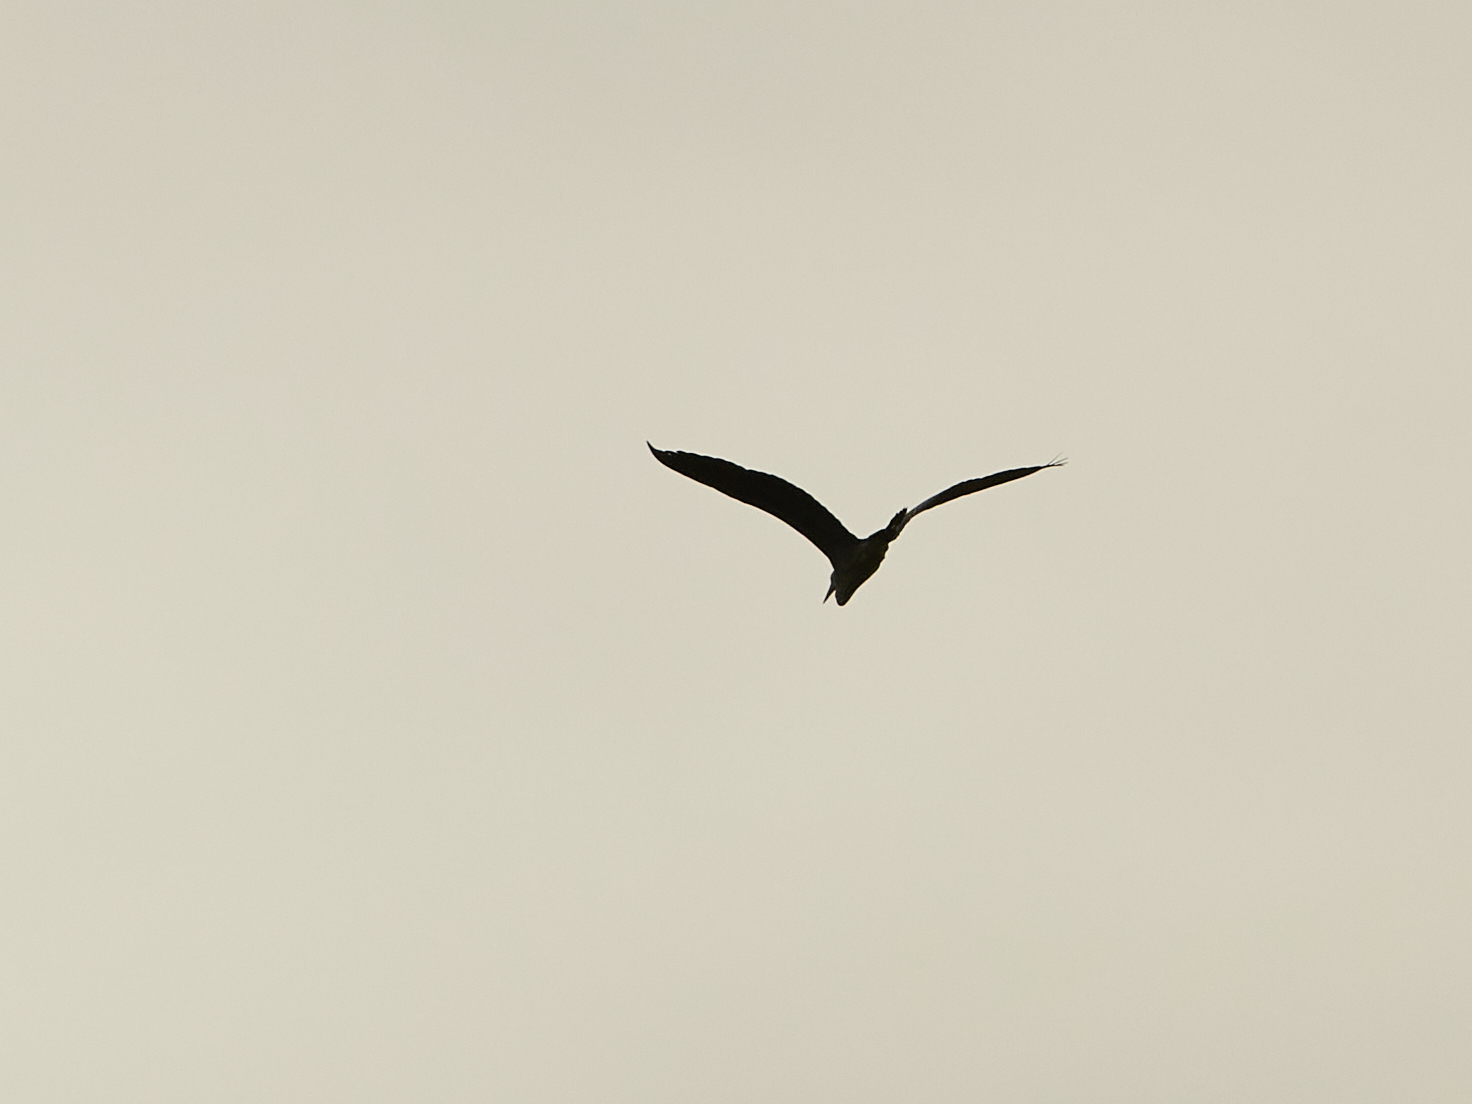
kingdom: Animalia
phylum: Chordata
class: Aves
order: Pelecaniformes
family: Ardeidae
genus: Ardea
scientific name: Ardea cinerea
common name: Grey heron
